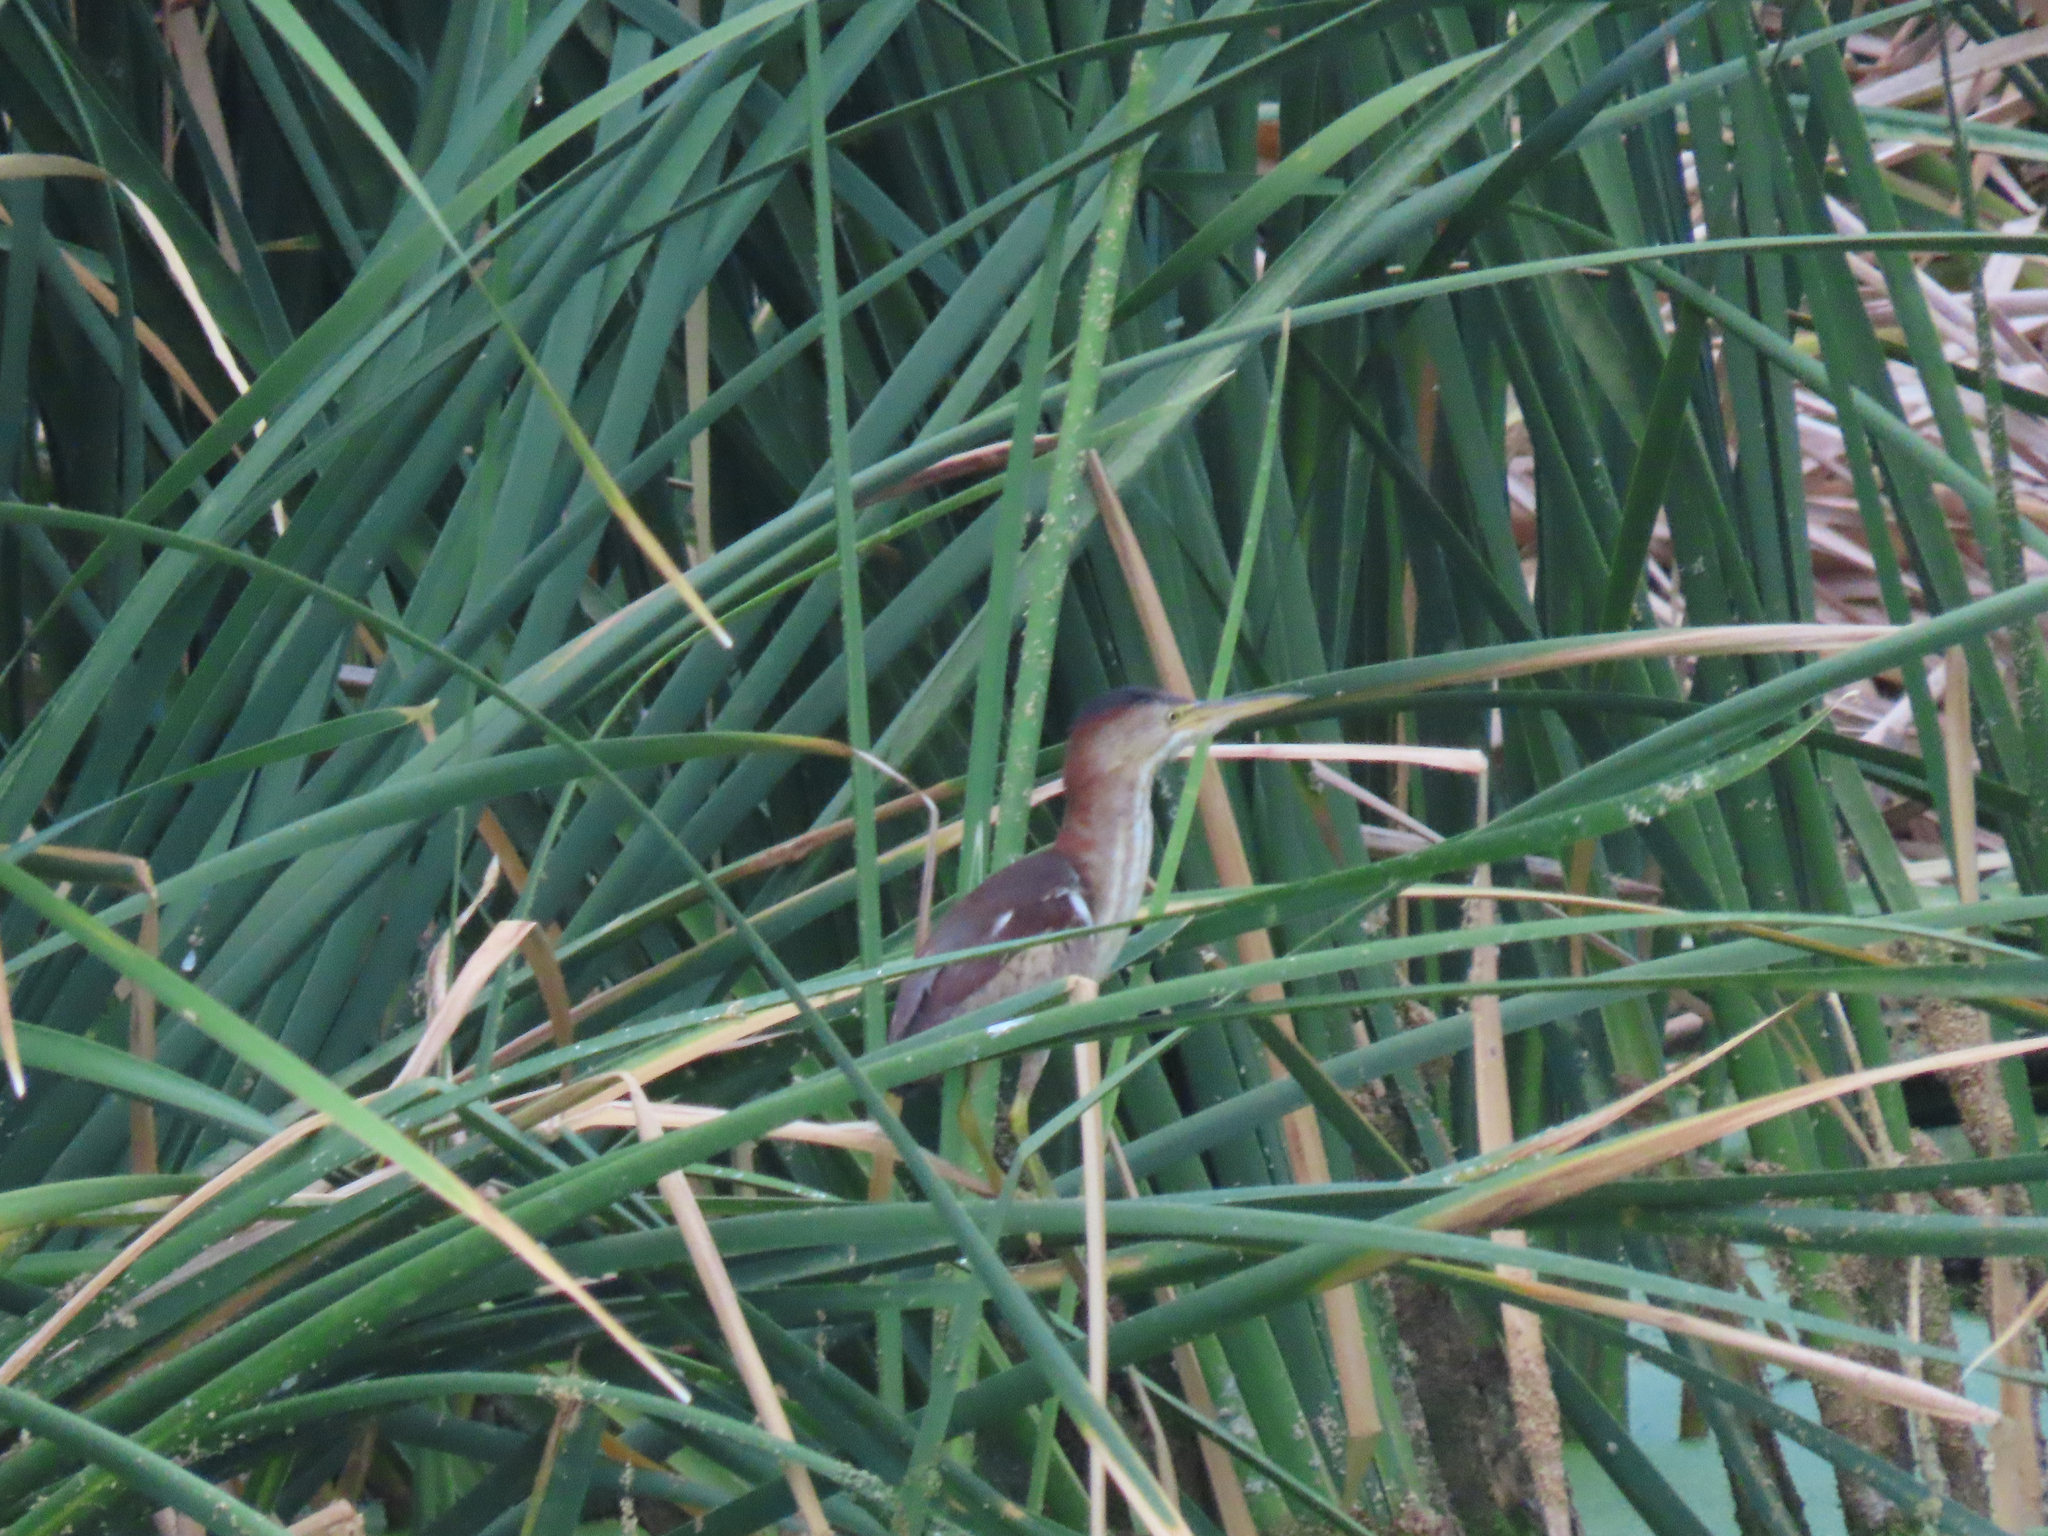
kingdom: Animalia
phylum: Chordata
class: Aves
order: Pelecaniformes
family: Ardeidae
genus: Ixobrychus
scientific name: Ixobrychus exilis
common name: Least bittern
